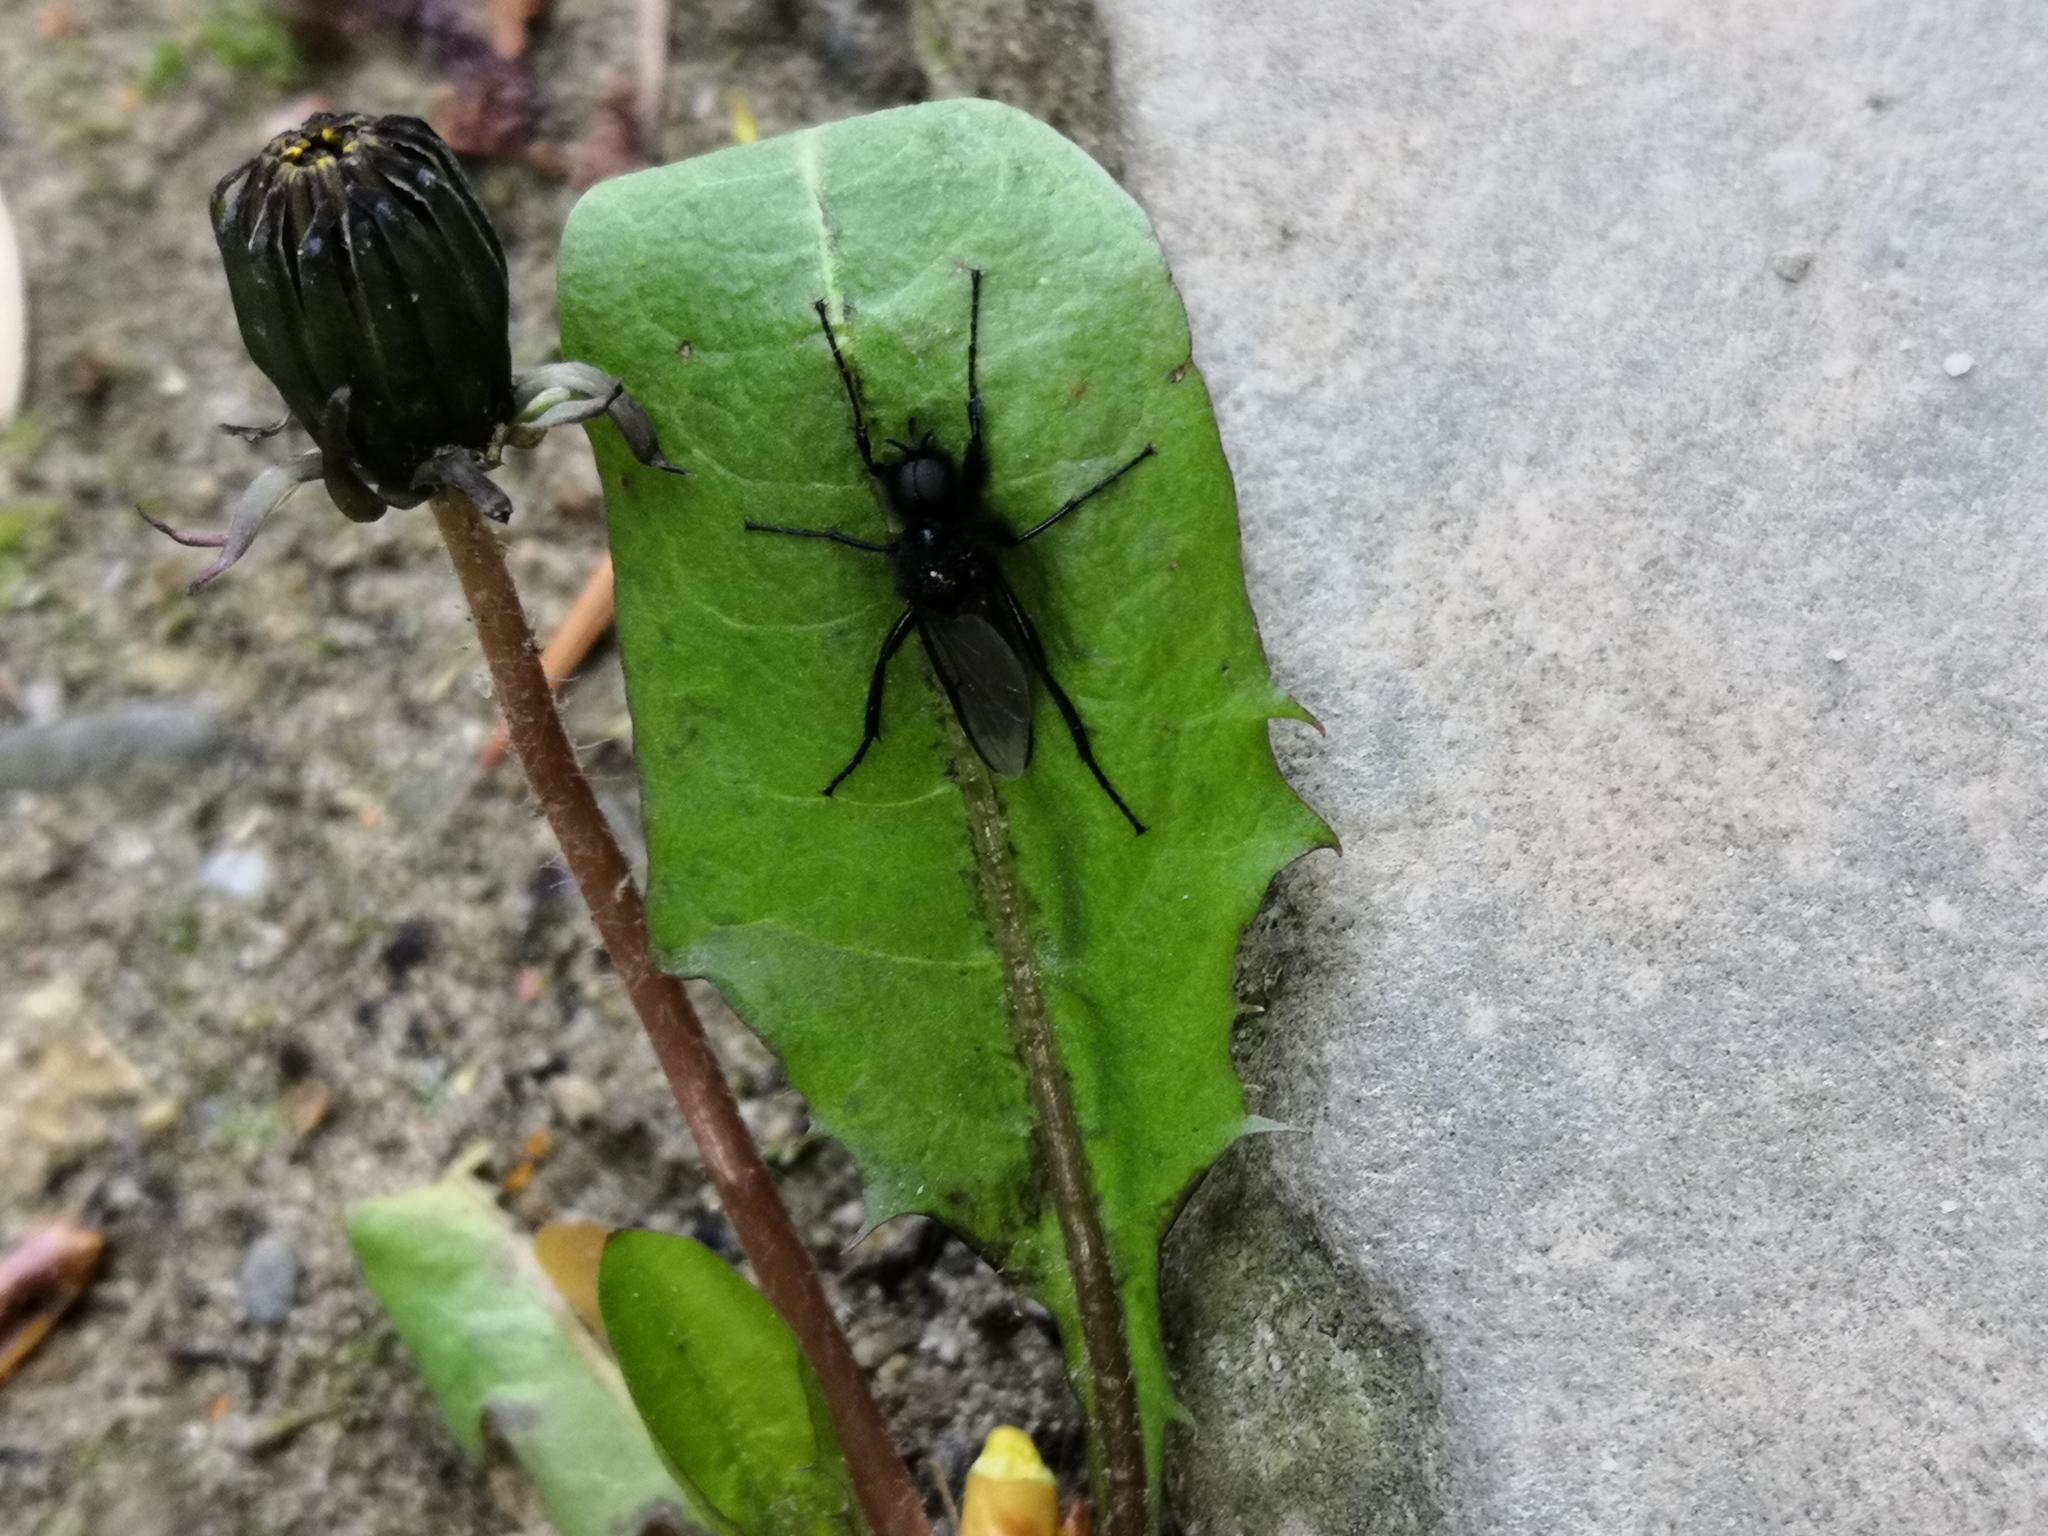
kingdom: Animalia
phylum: Arthropoda
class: Insecta
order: Diptera
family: Bibionidae
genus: Bibio
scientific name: Bibio marci
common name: St marks fly
